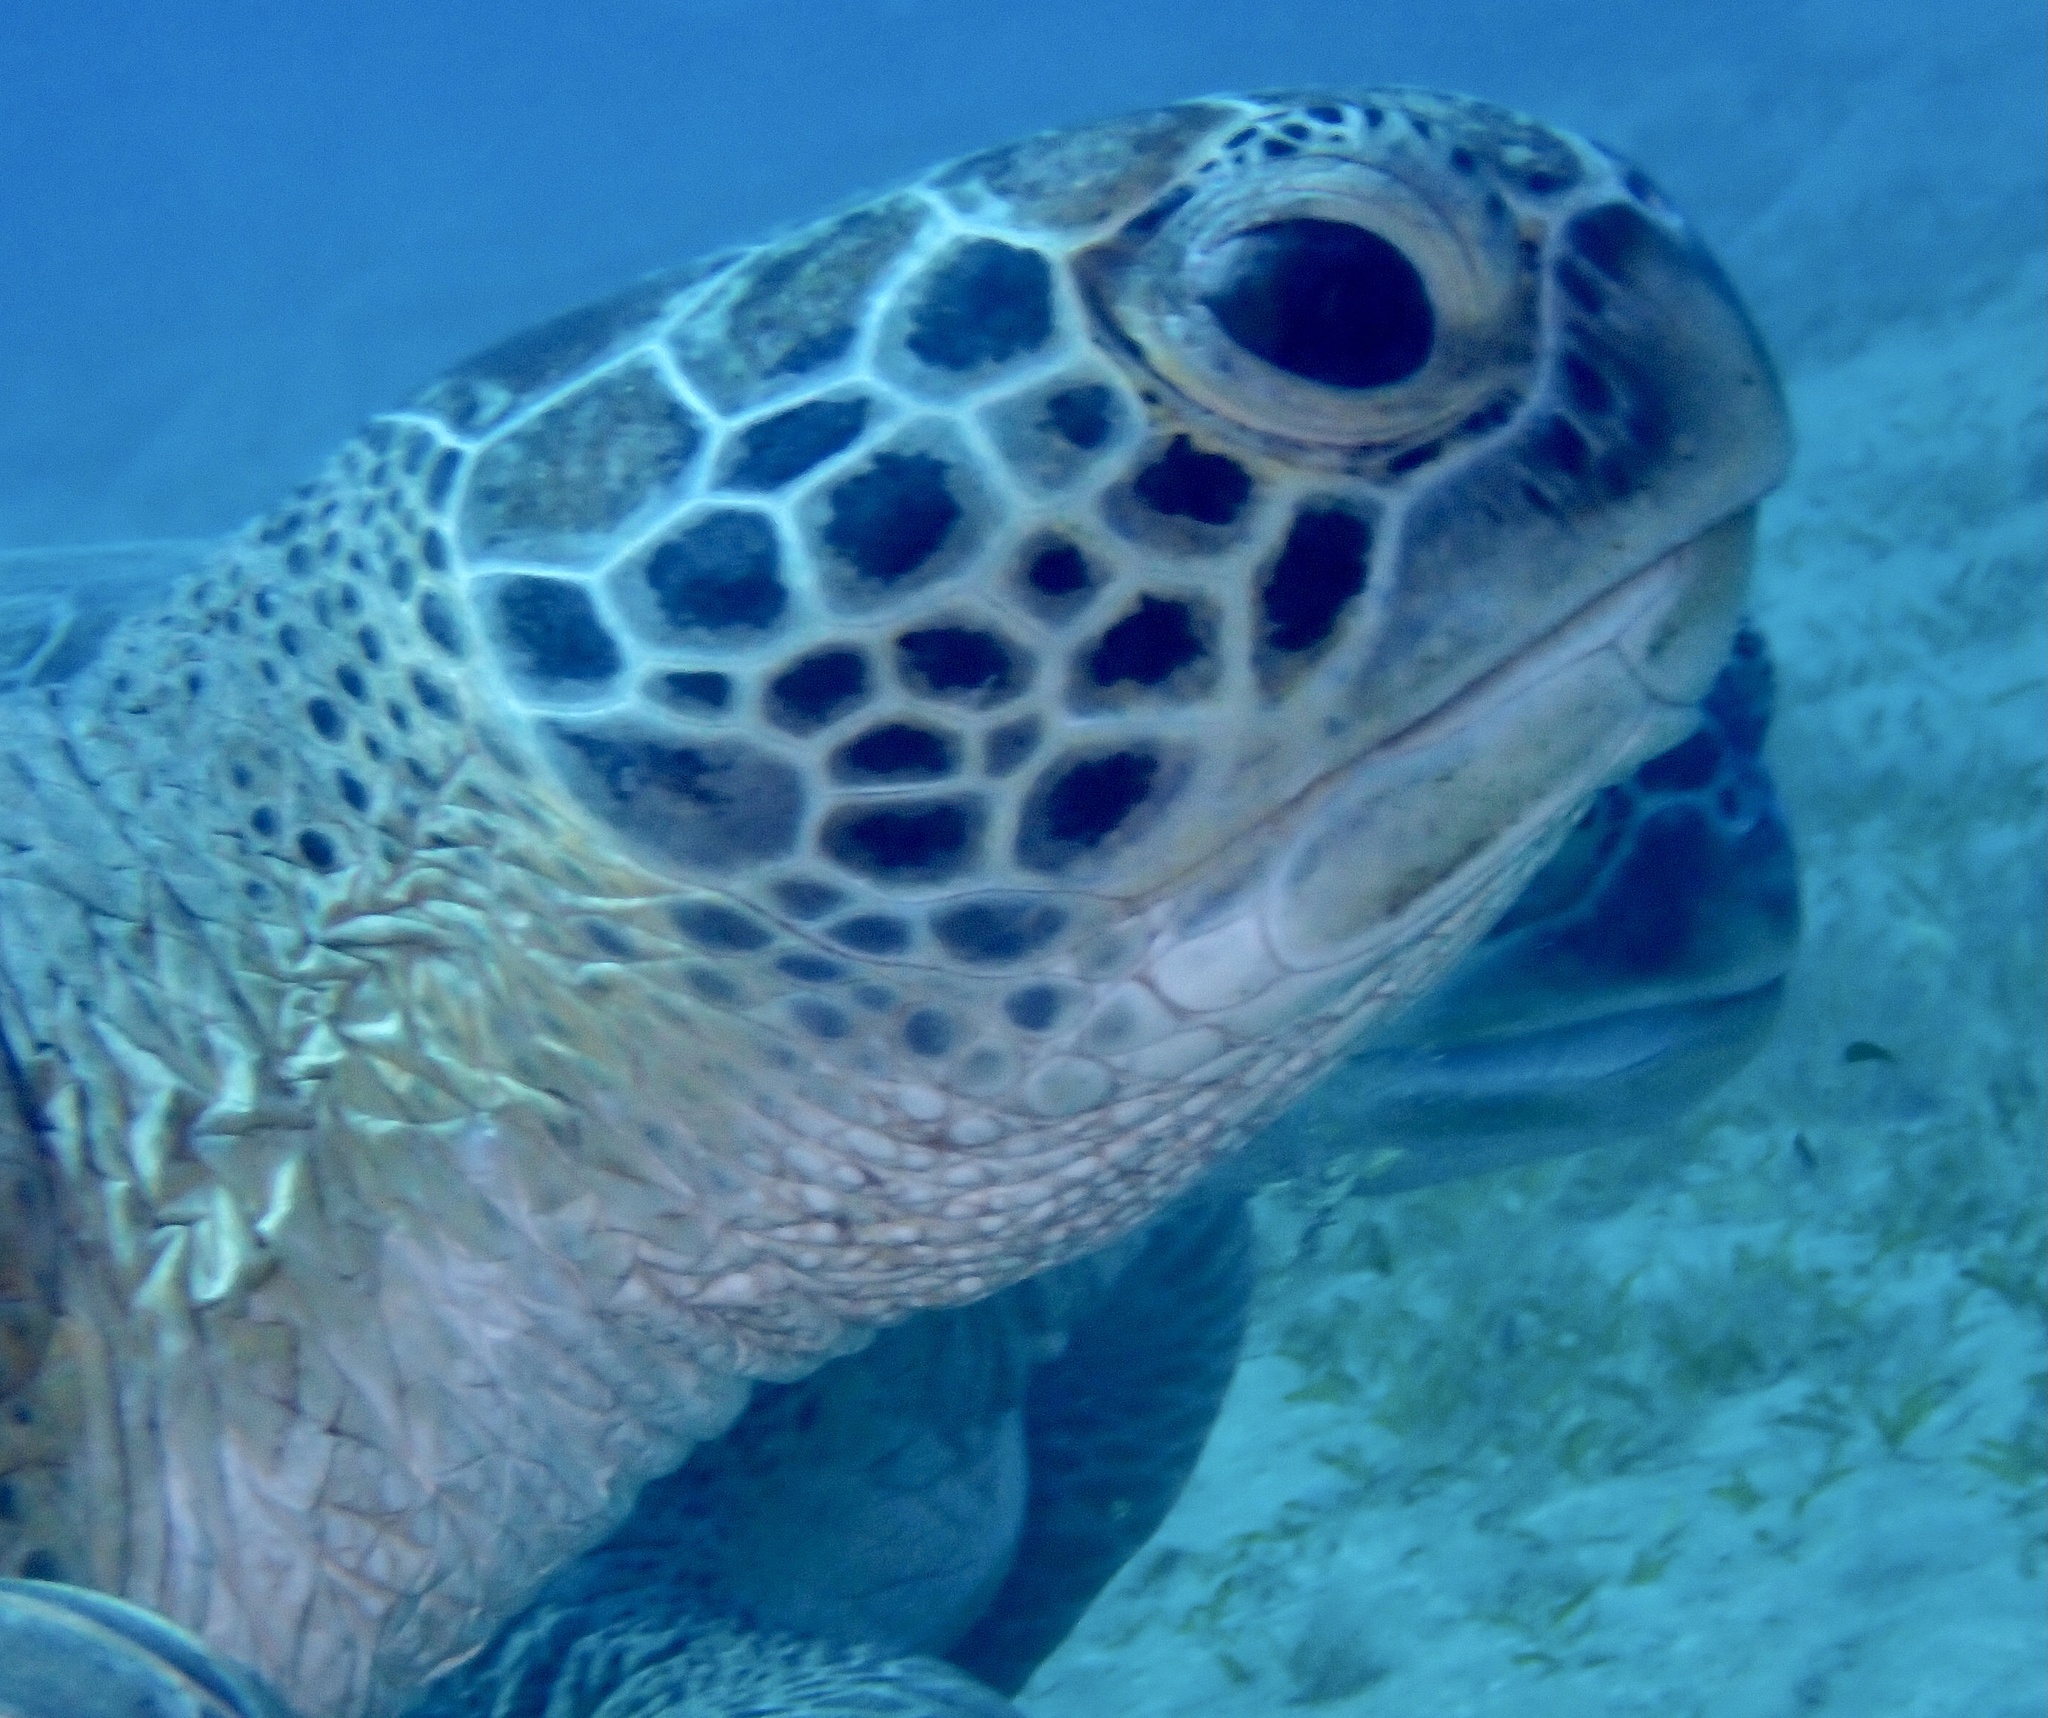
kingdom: Animalia
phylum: Chordata
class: Testudines
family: Cheloniidae
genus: Chelonia
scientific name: Chelonia mydas
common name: Green turtle
